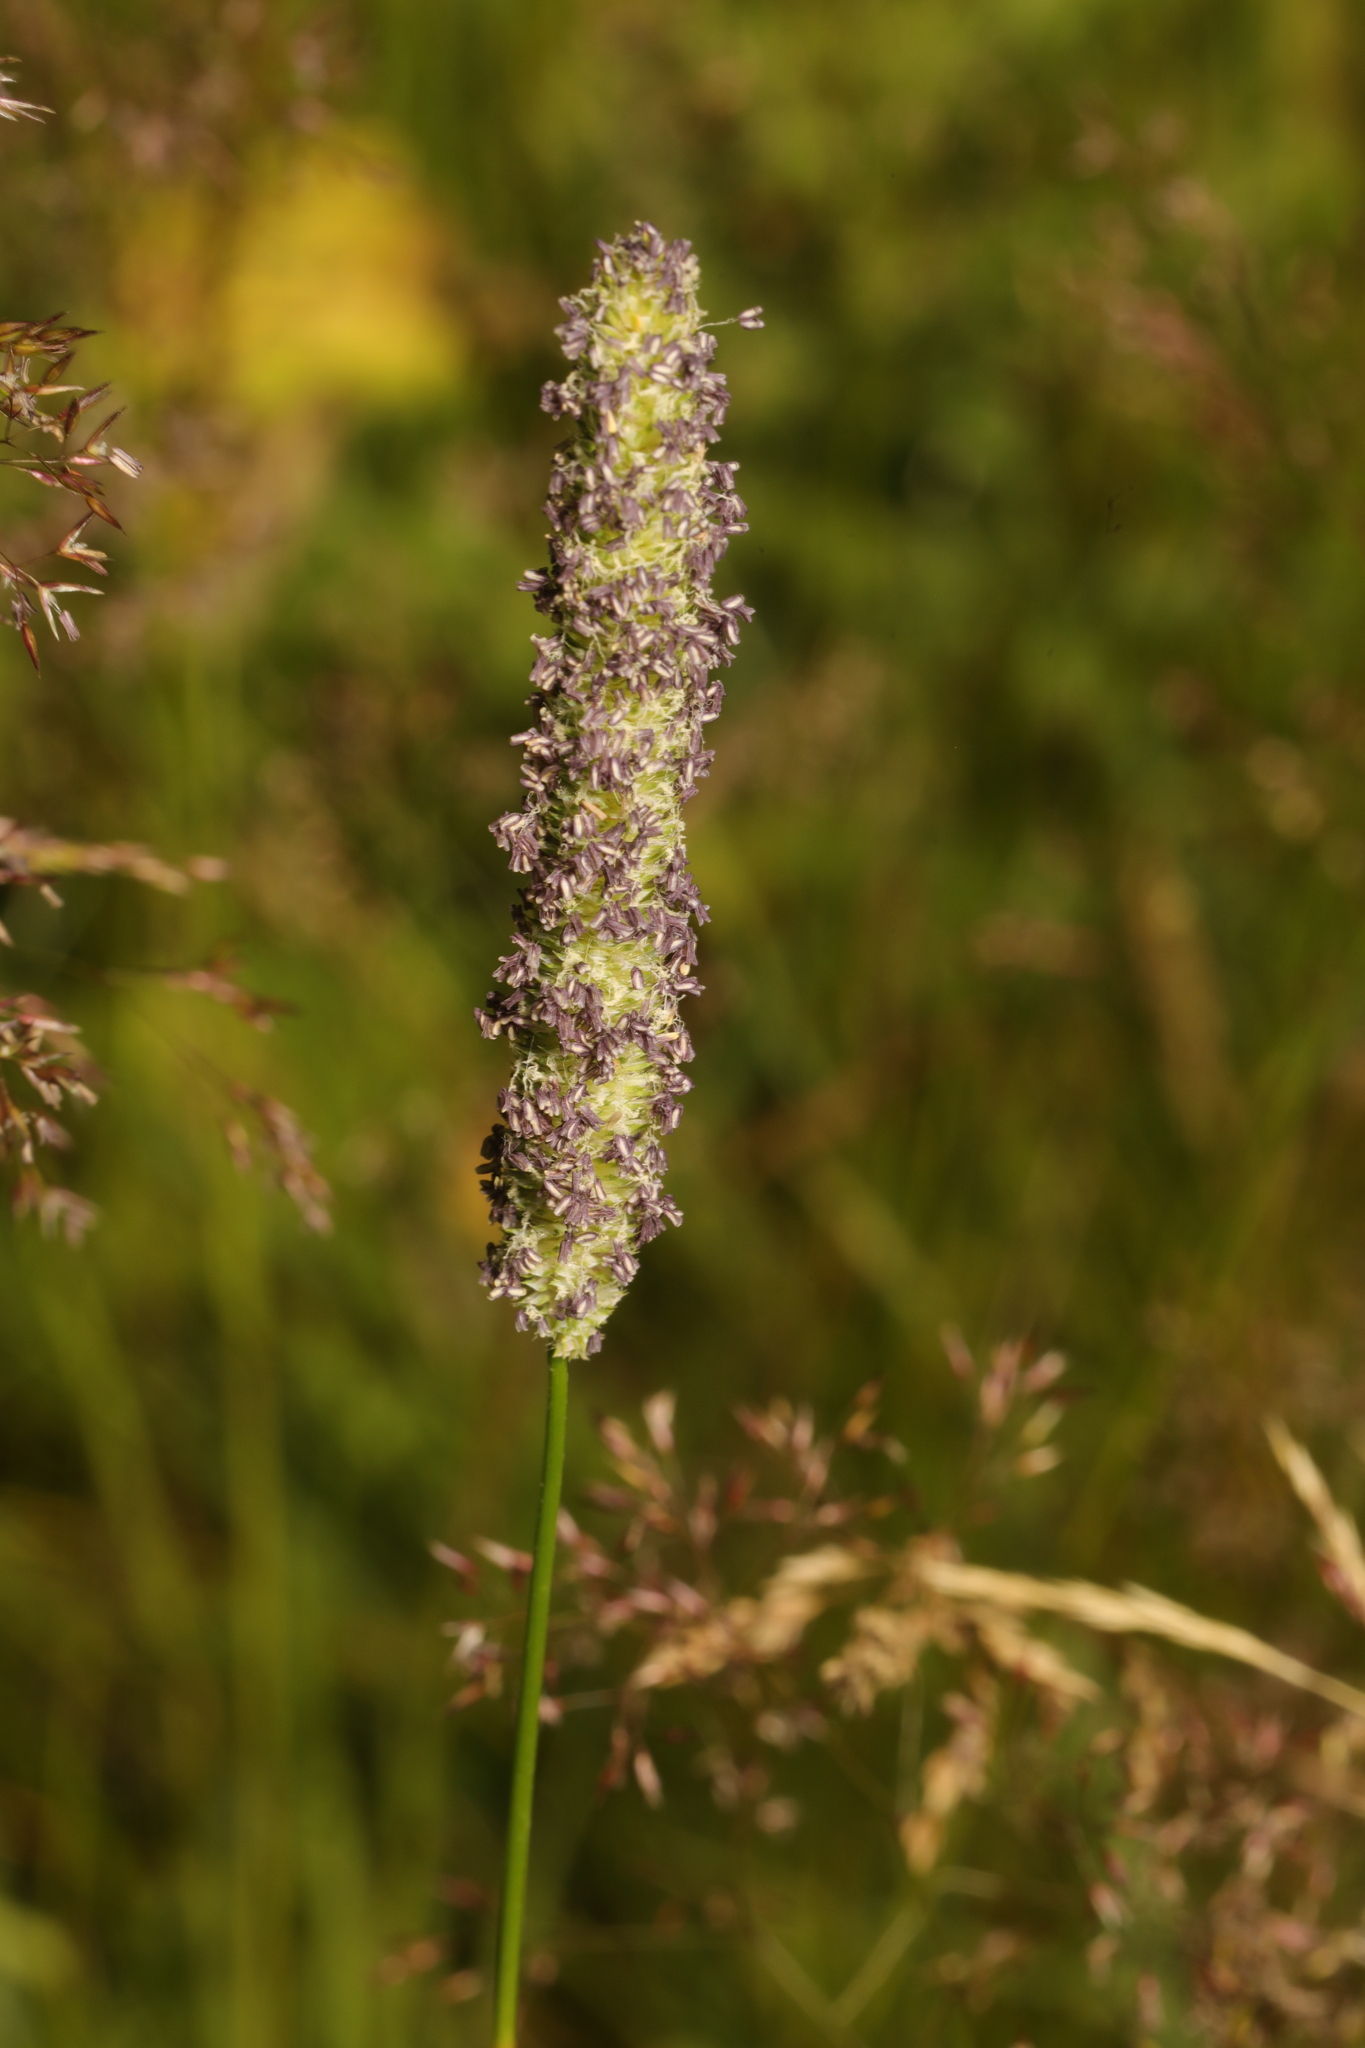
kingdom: Plantae
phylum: Tracheophyta
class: Liliopsida
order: Poales
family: Poaceae
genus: Phleum
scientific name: Phleum pratense
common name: Timothy grass
